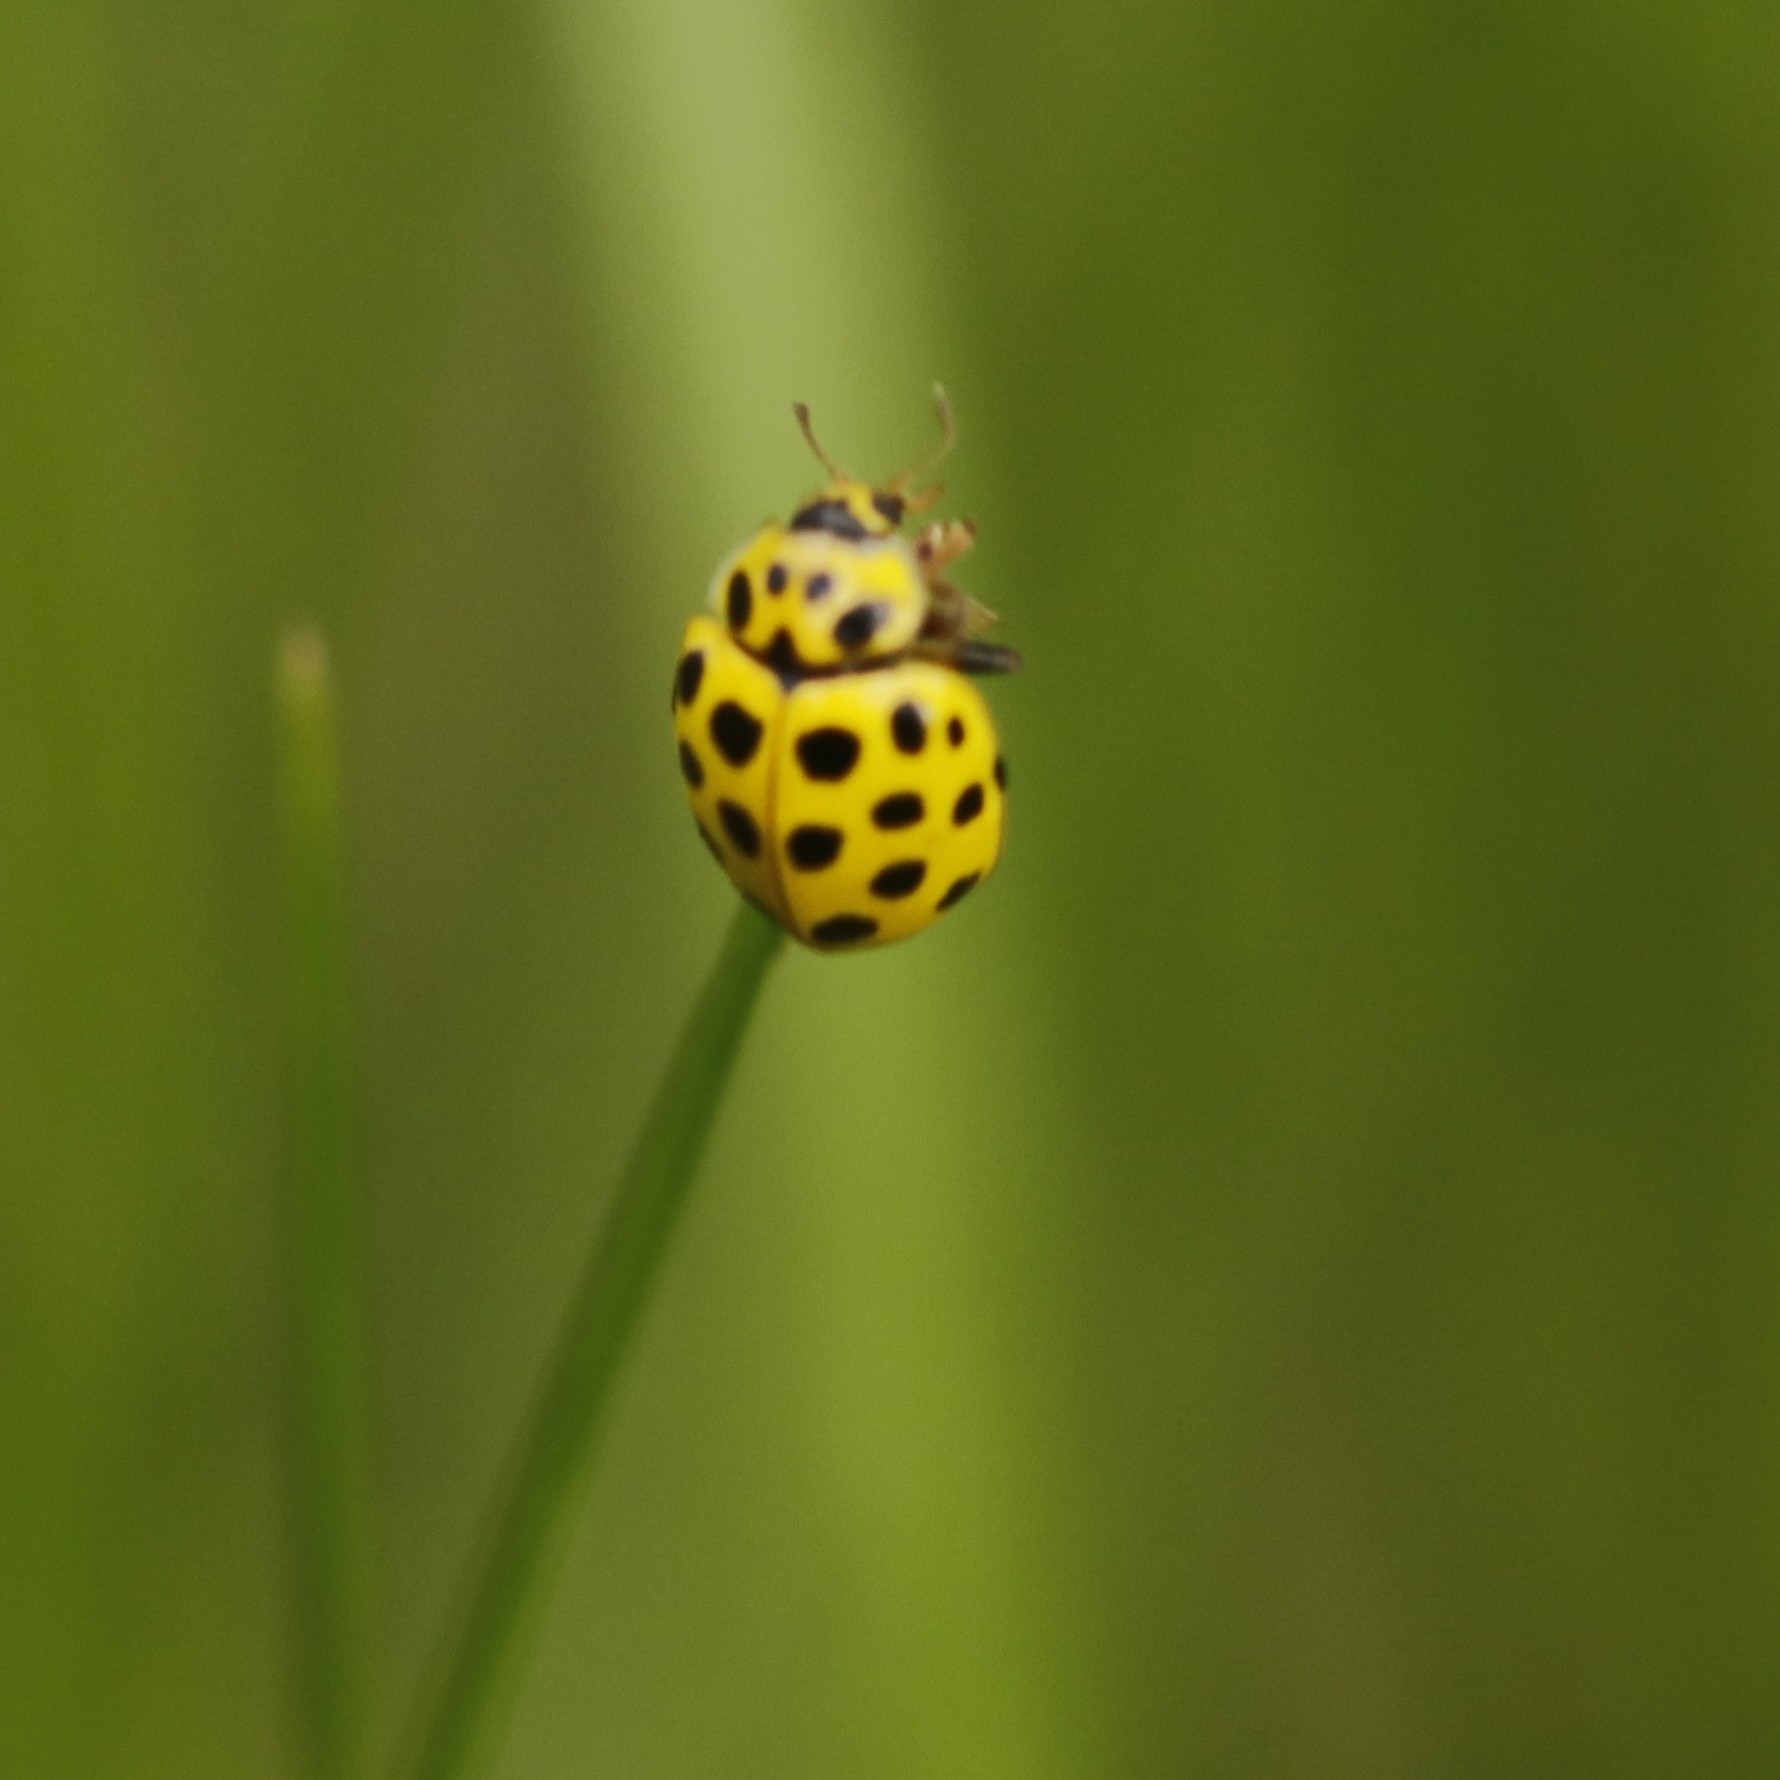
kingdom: Animalia
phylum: Arthropoda
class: Insecta
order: Coleoptera
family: Coccinellidae
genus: Psyllobora
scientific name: Psyllobora vigintiduopunctata
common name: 22-spot ladybird
